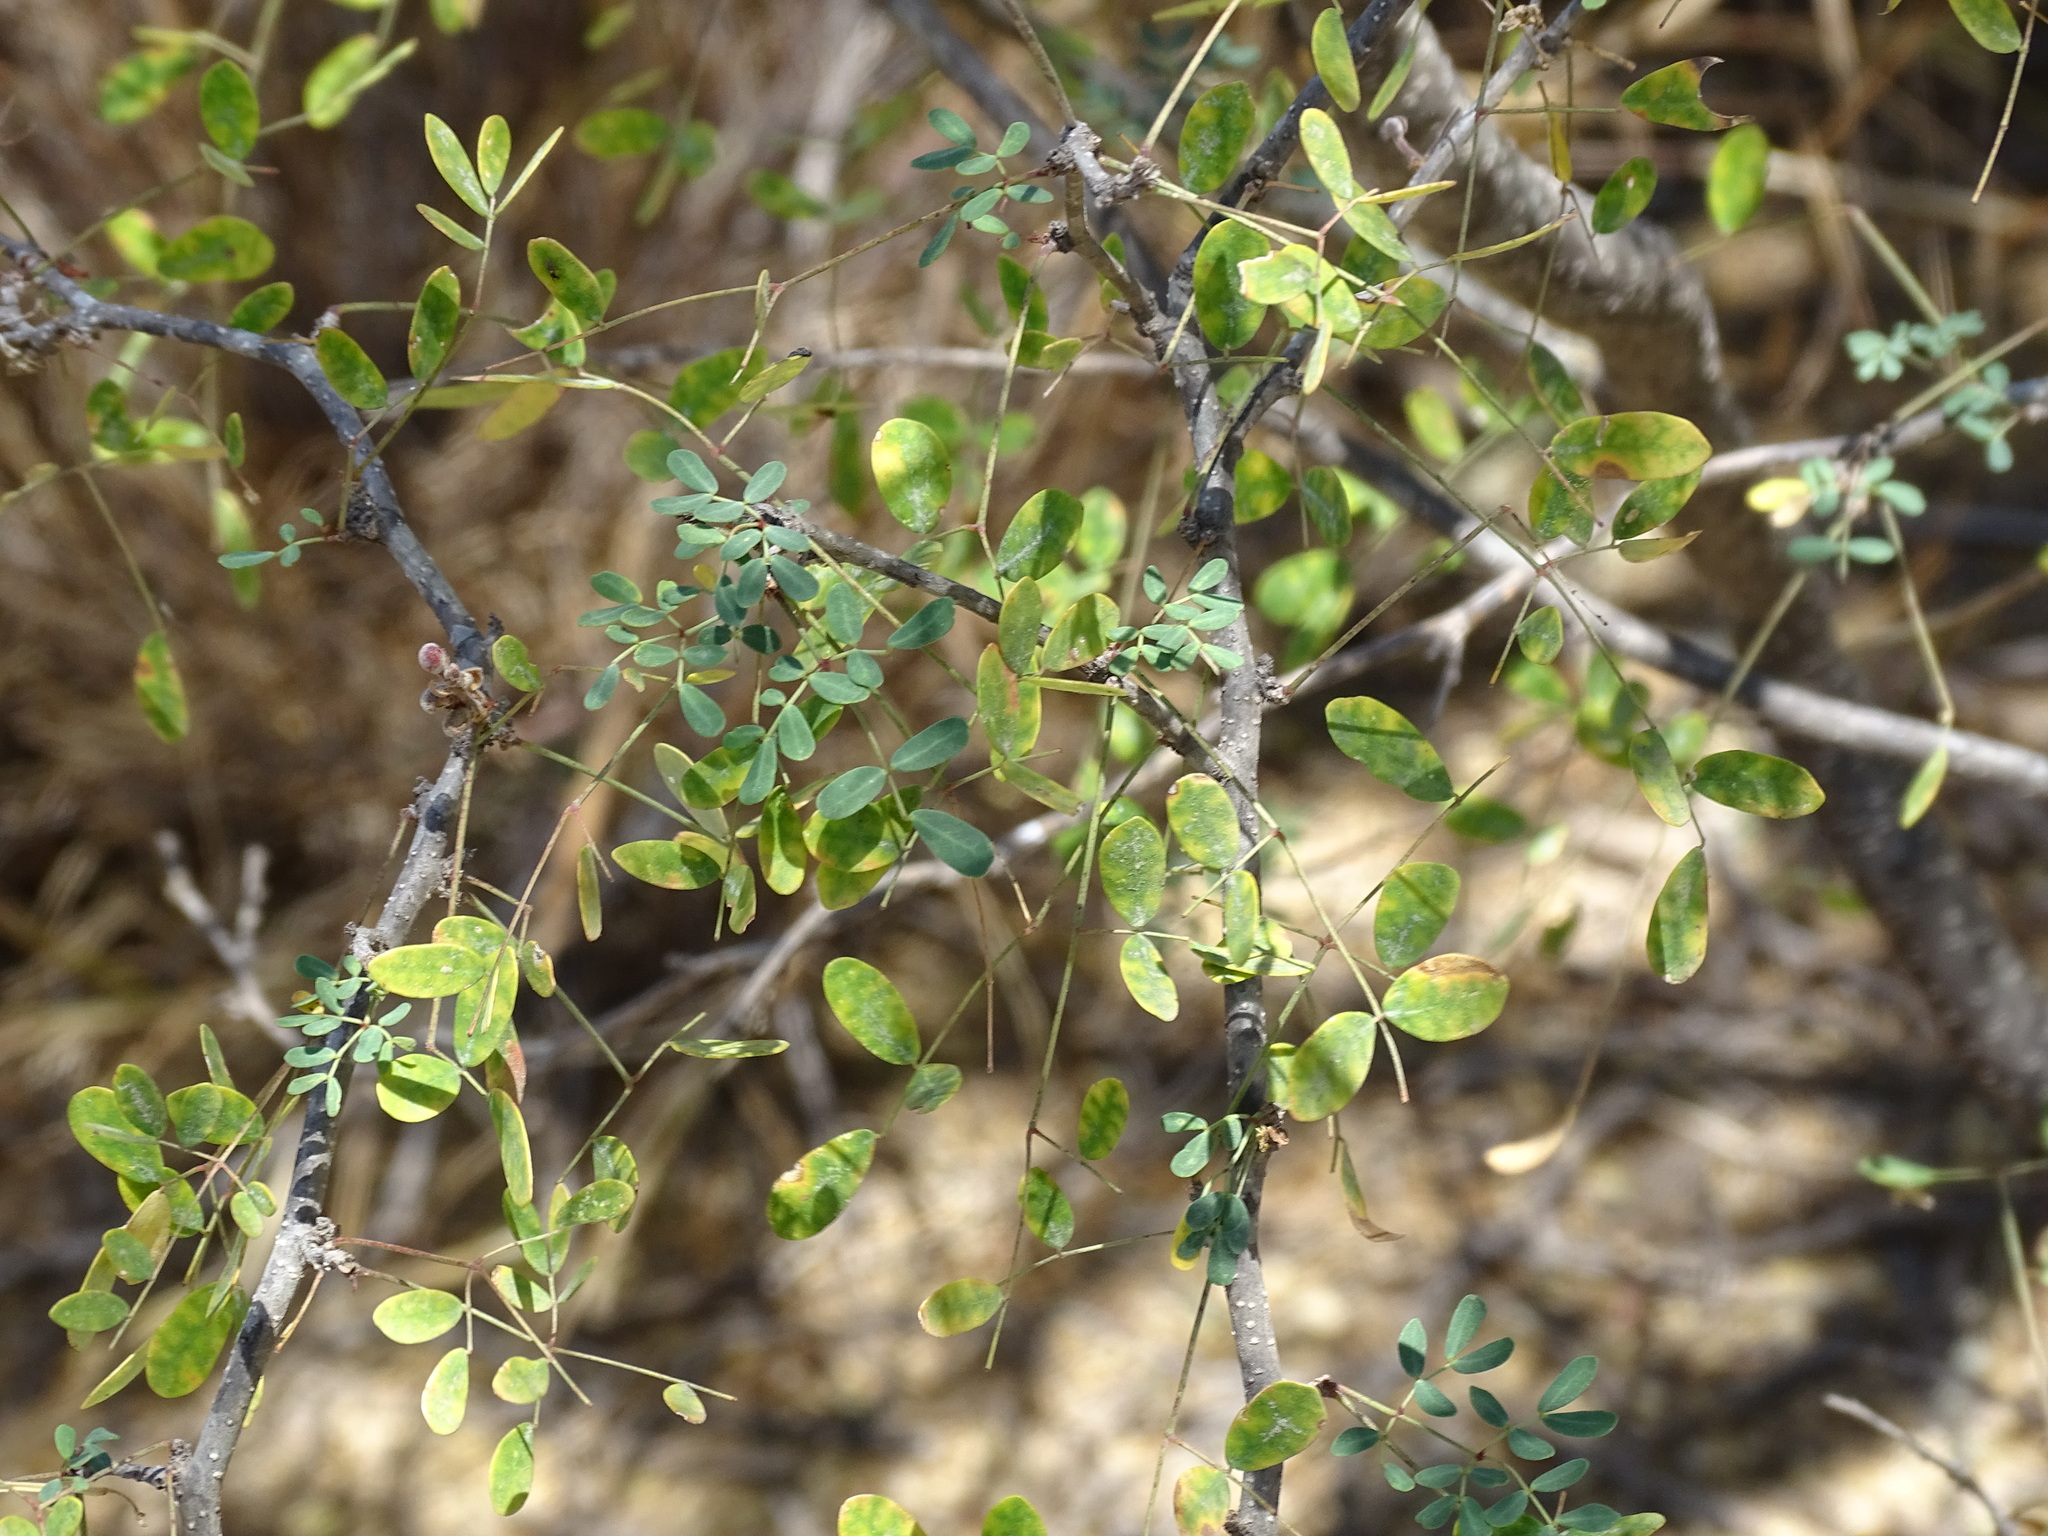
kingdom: Plantae
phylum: Tracheophyta
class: Magnoliopsida
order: Fabales
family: Fabaceae
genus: Erythrostemon
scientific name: Erythrostemon palmeri
